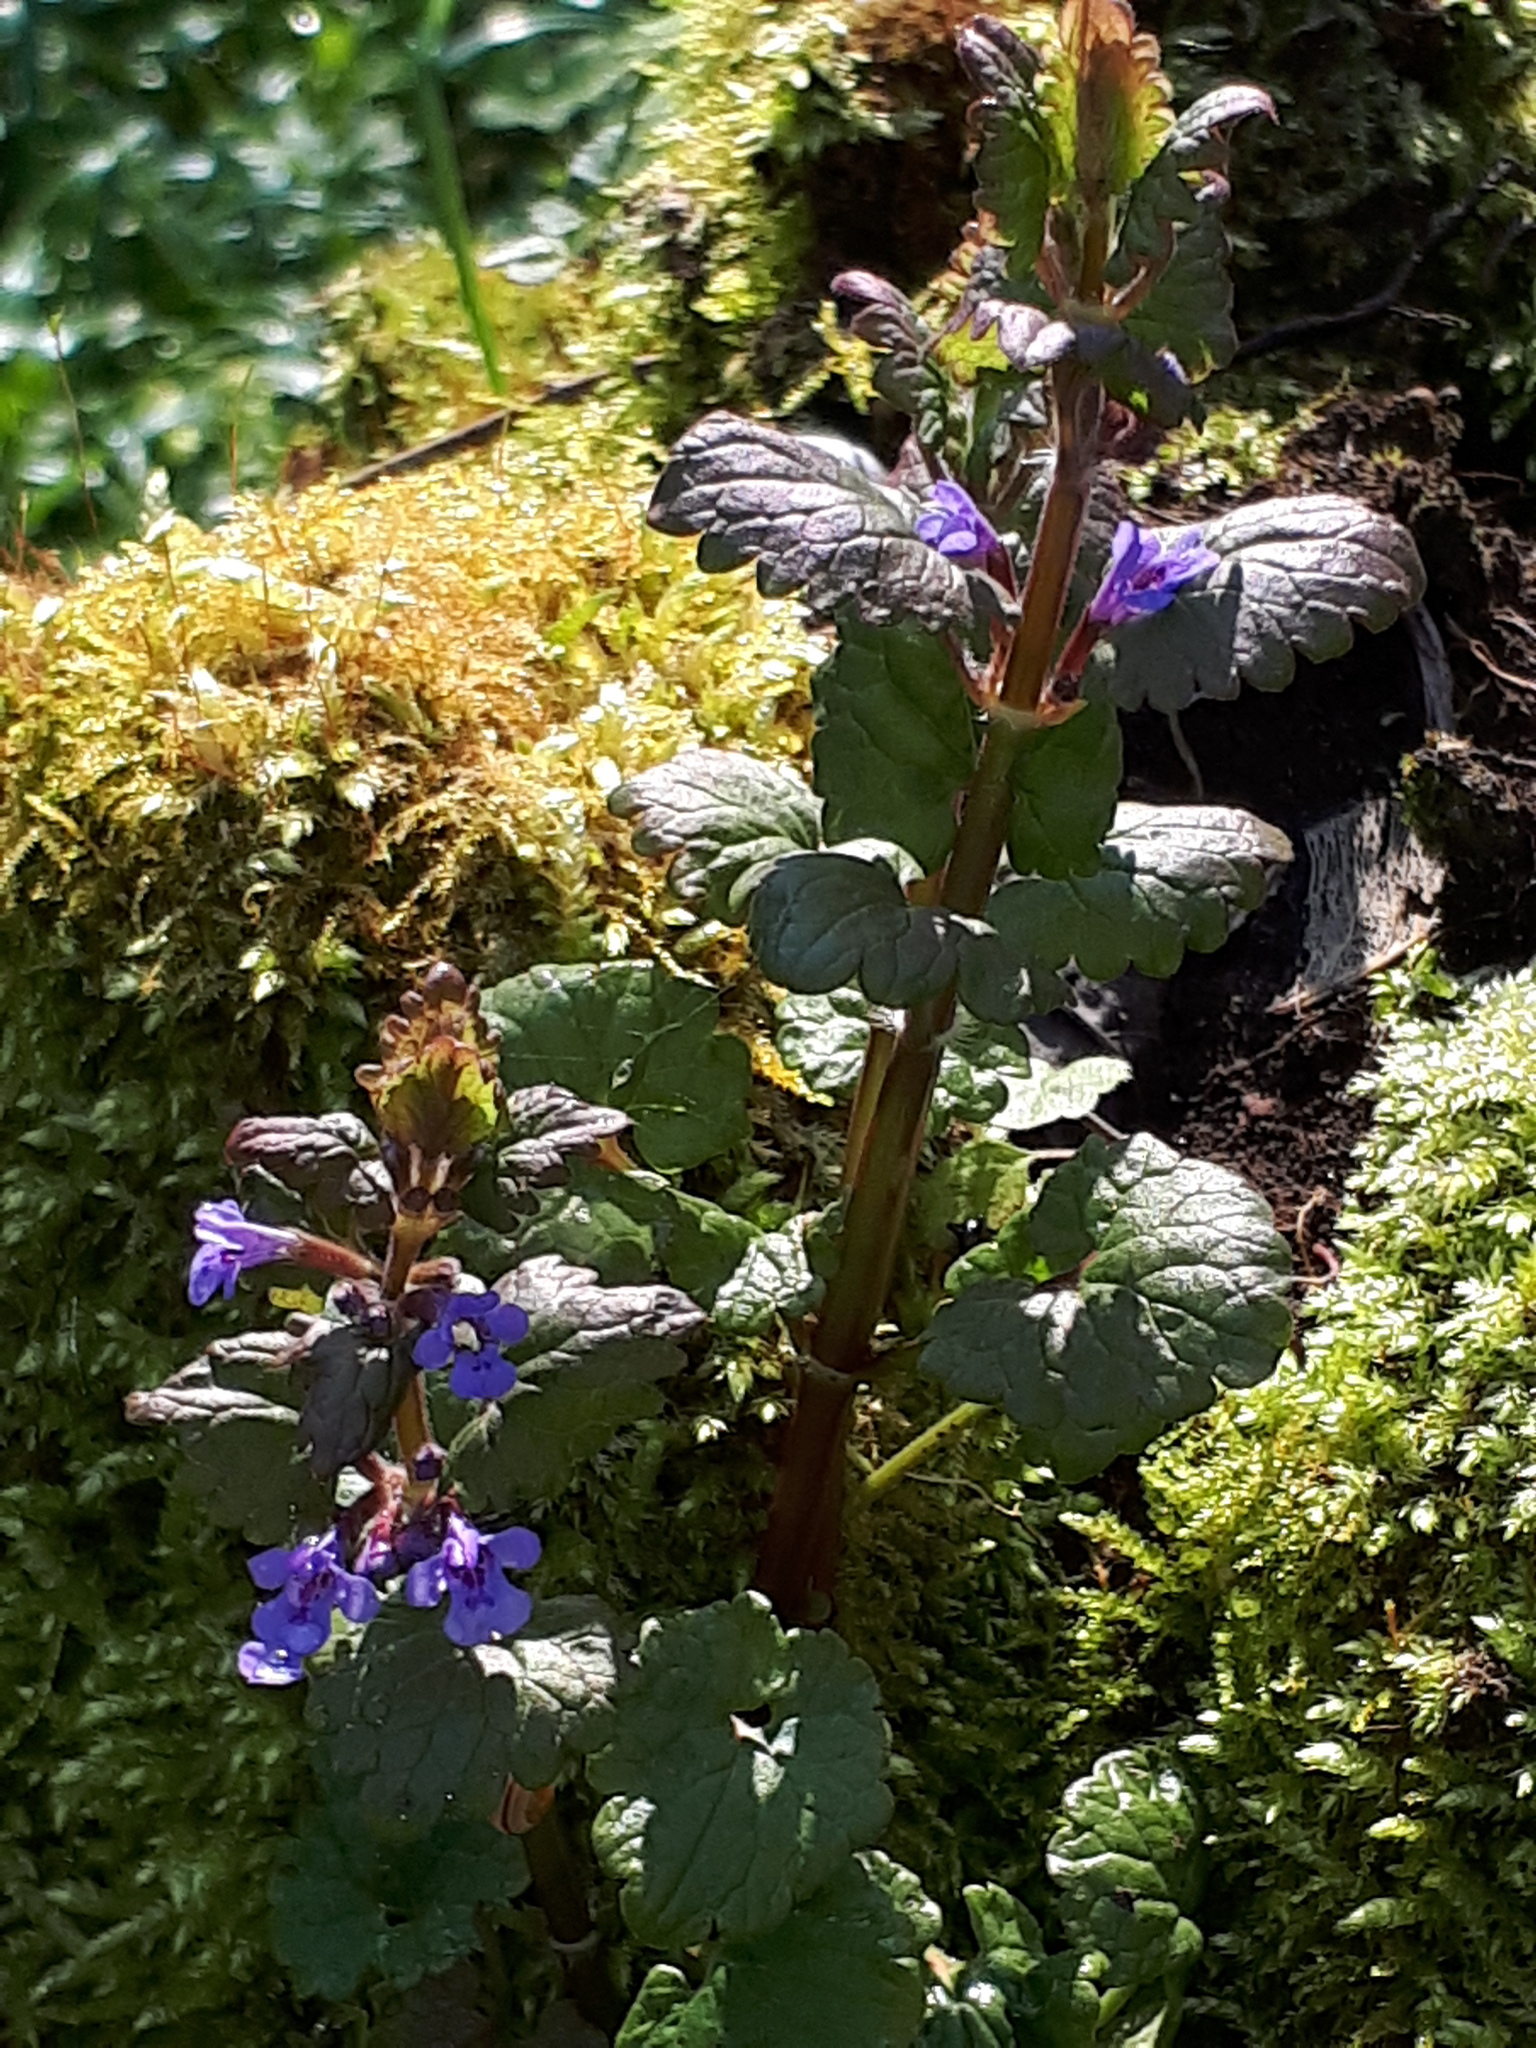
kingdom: Plantae
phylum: Tracheophyta
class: Magnoliopsida
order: Lamiales
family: Lamiaceae
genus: Glechoma
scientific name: Glechoma hederacea
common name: Ground ivy
